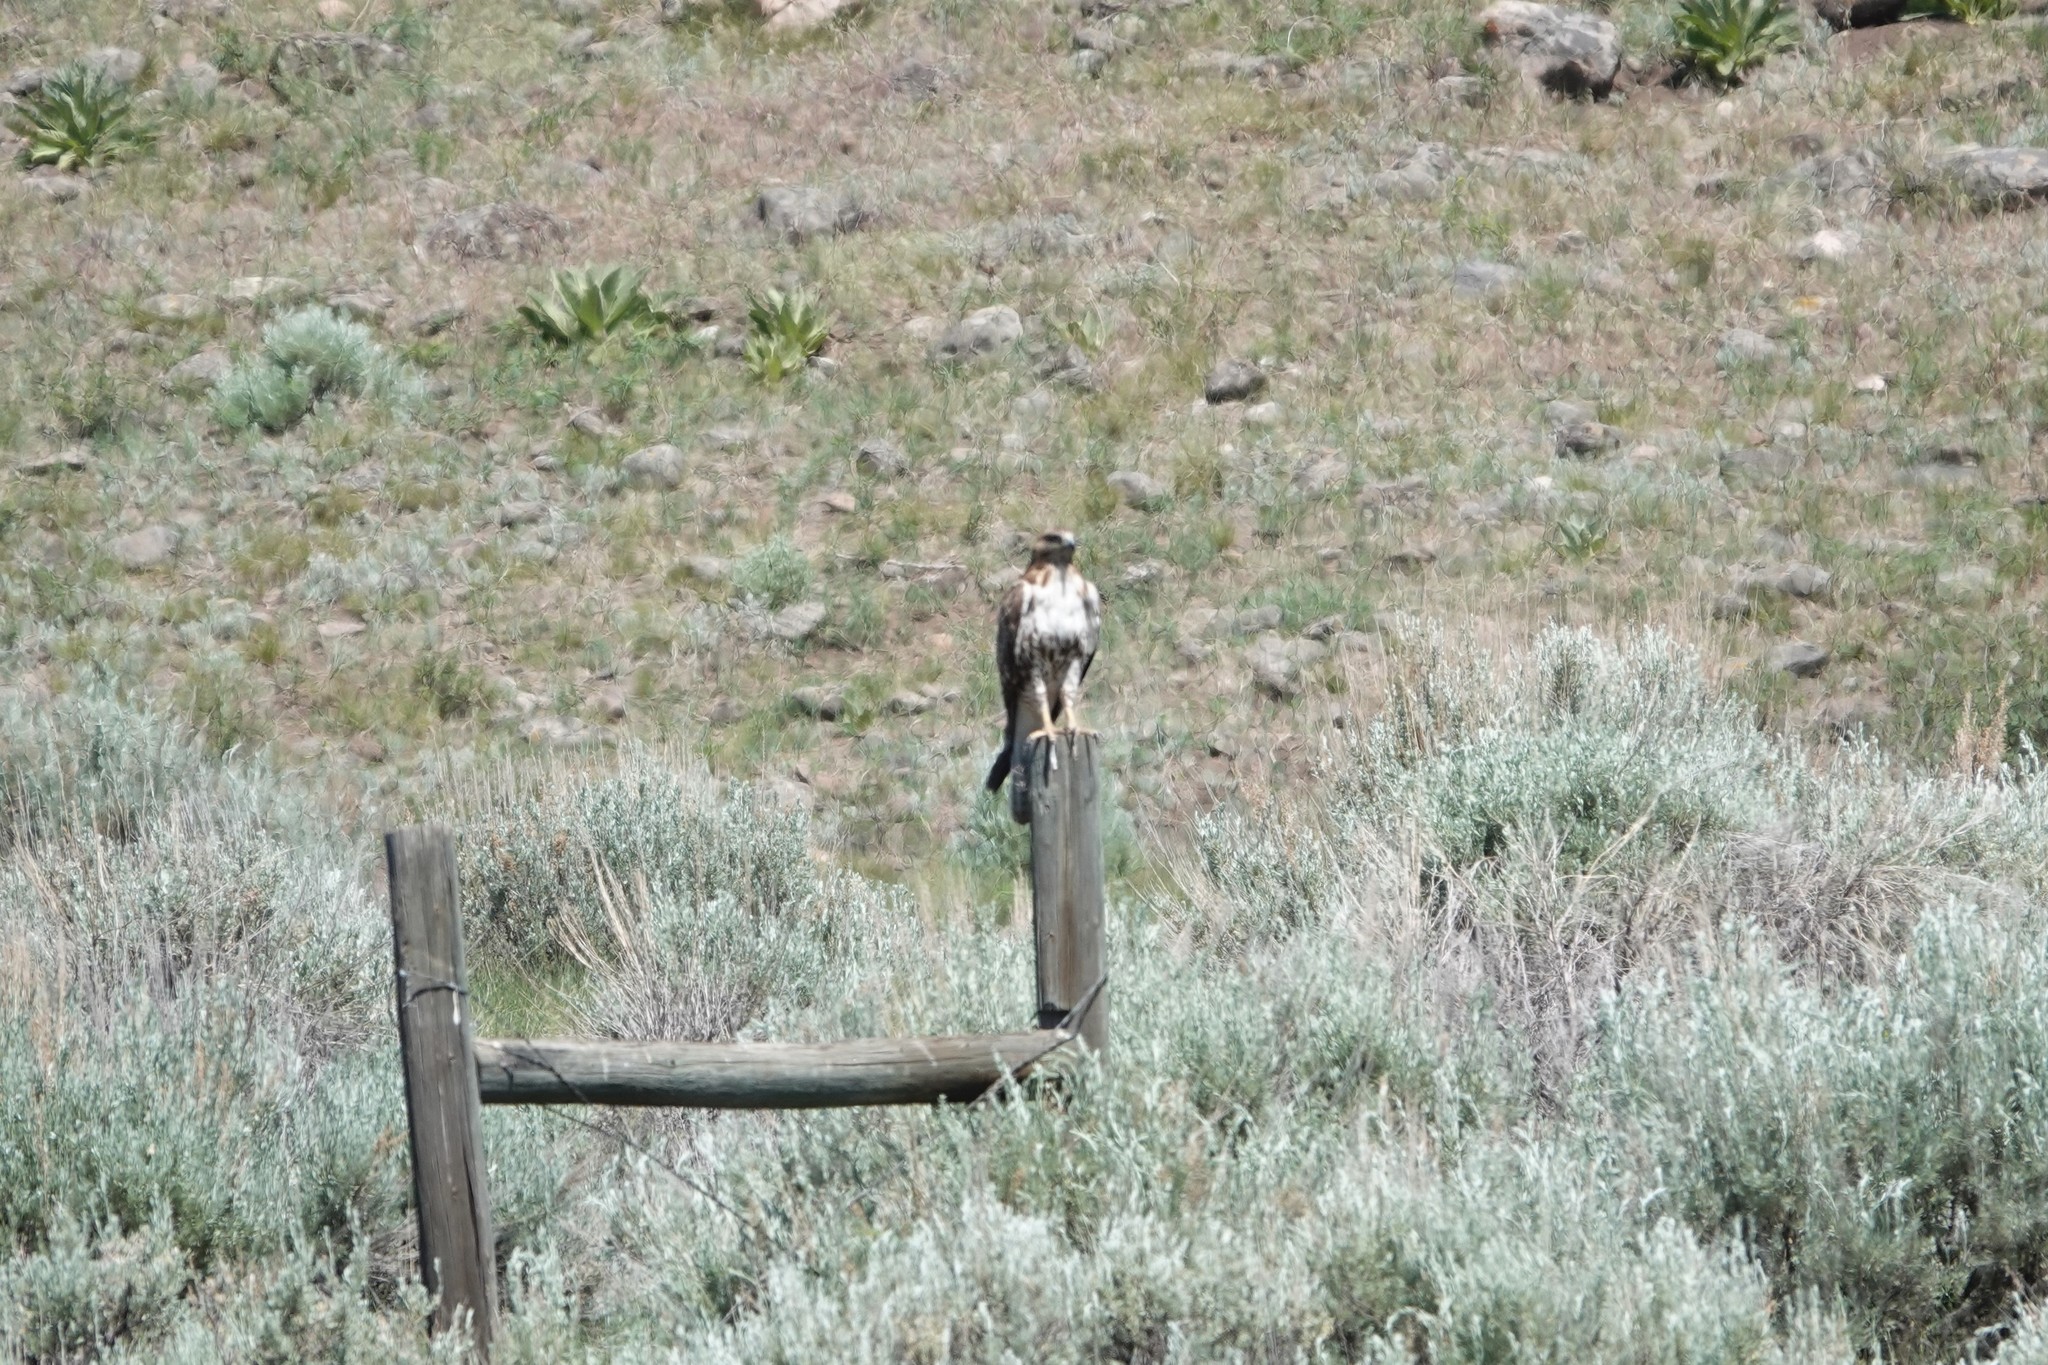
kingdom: Animalia
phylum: Chordata
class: Aves
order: Accipitriformes
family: Accipitridae
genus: Buteo
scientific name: Buteo jamaicensis
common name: Red-tailed hawk
